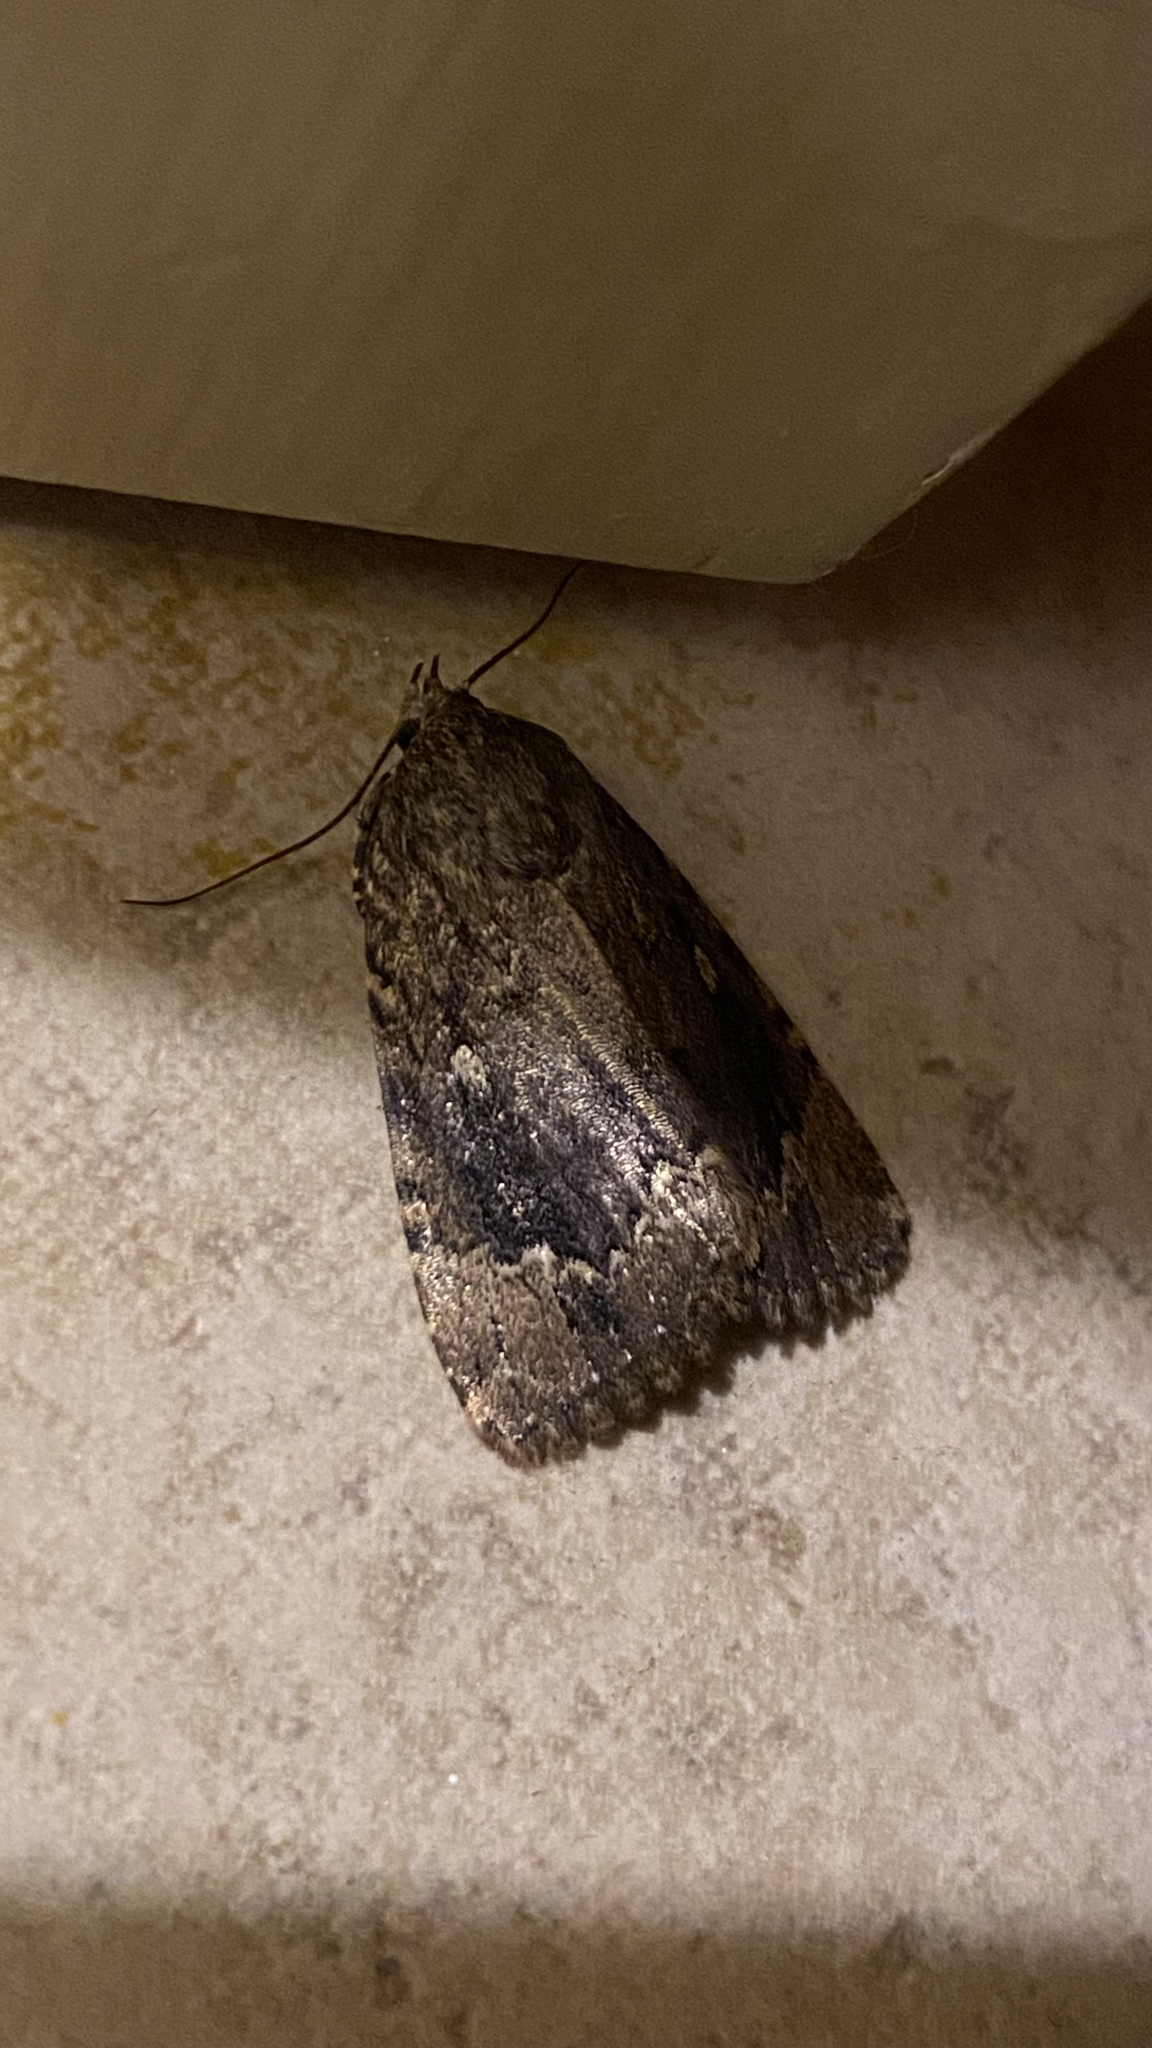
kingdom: Animalia
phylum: Arthropoda
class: Insecta
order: Lepidoptera
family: Noctuidae
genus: Amphipyra
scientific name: Amphipyra pyramidoides
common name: American copper underwing
